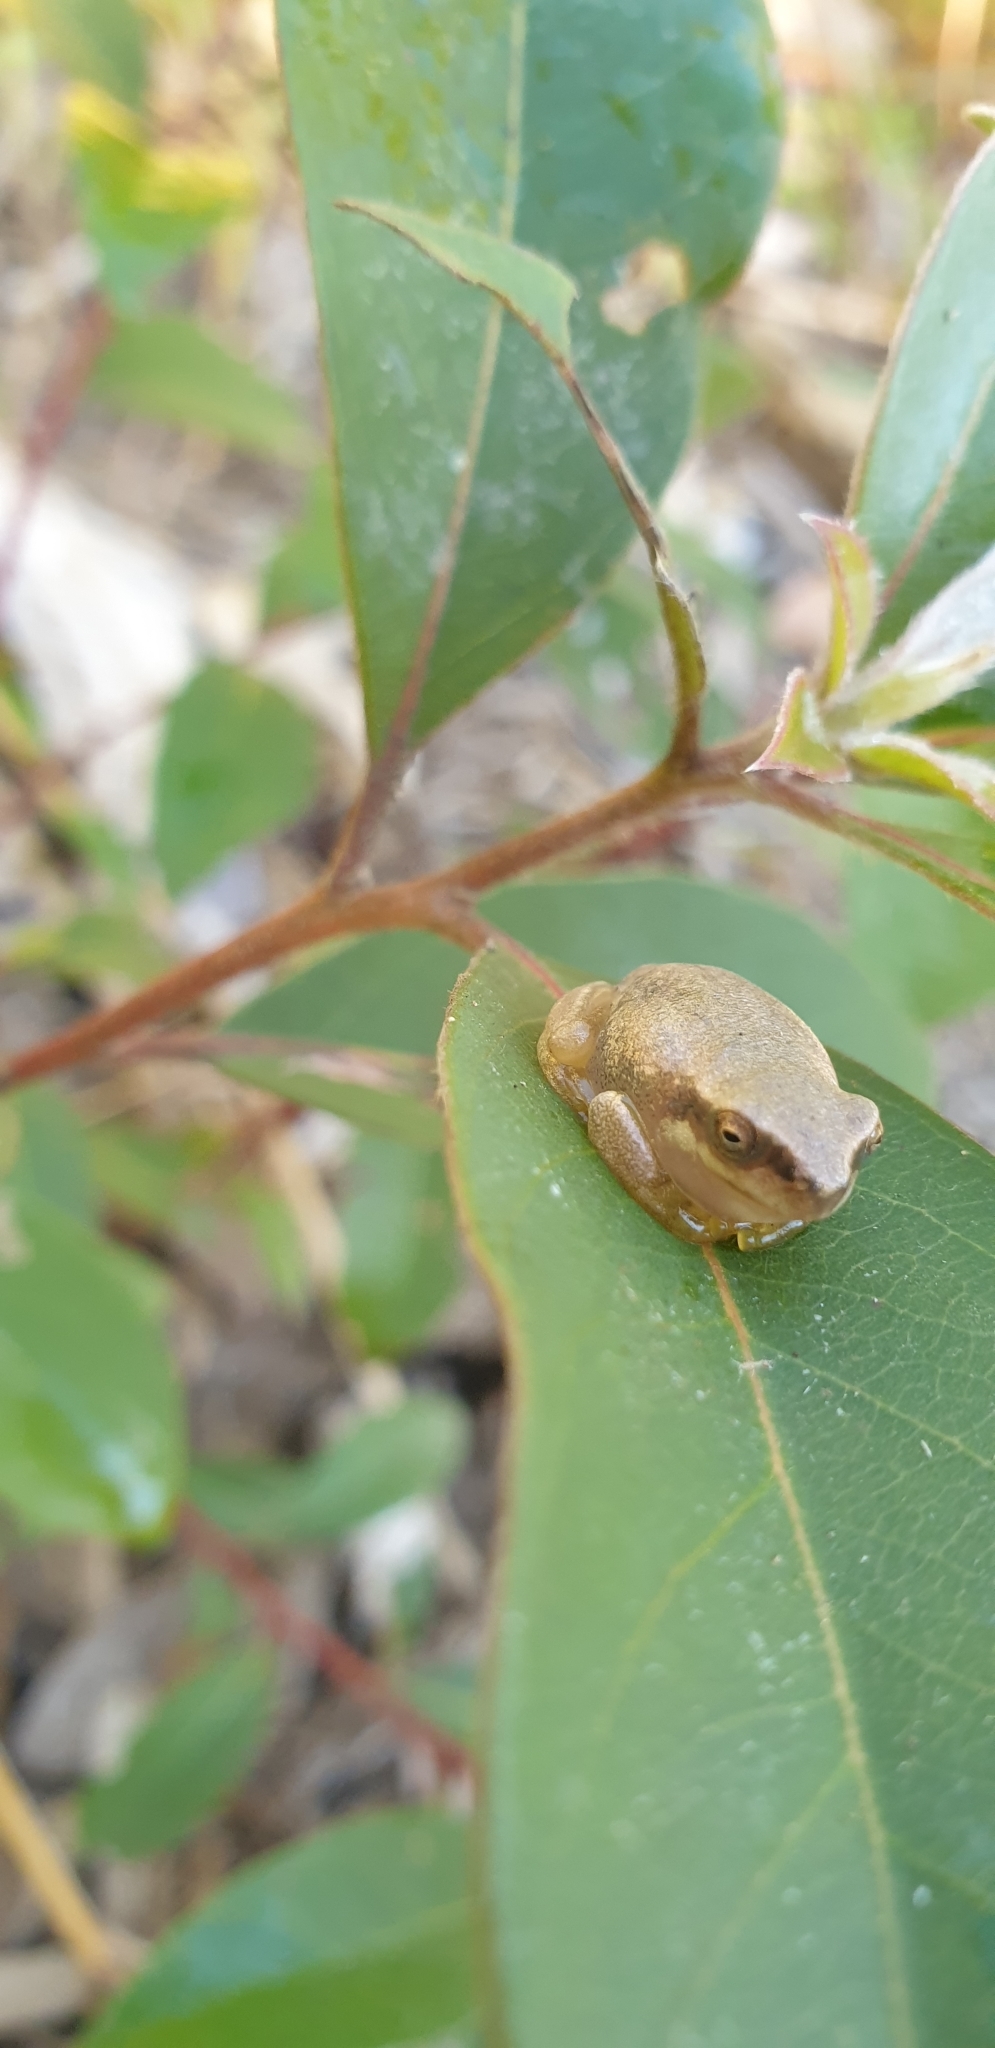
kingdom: Animalia
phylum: Chordata
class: Amphibia
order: Anura
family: Pelodryadidae
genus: Litoria
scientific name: Litoria rubella
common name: Desert tree frog
